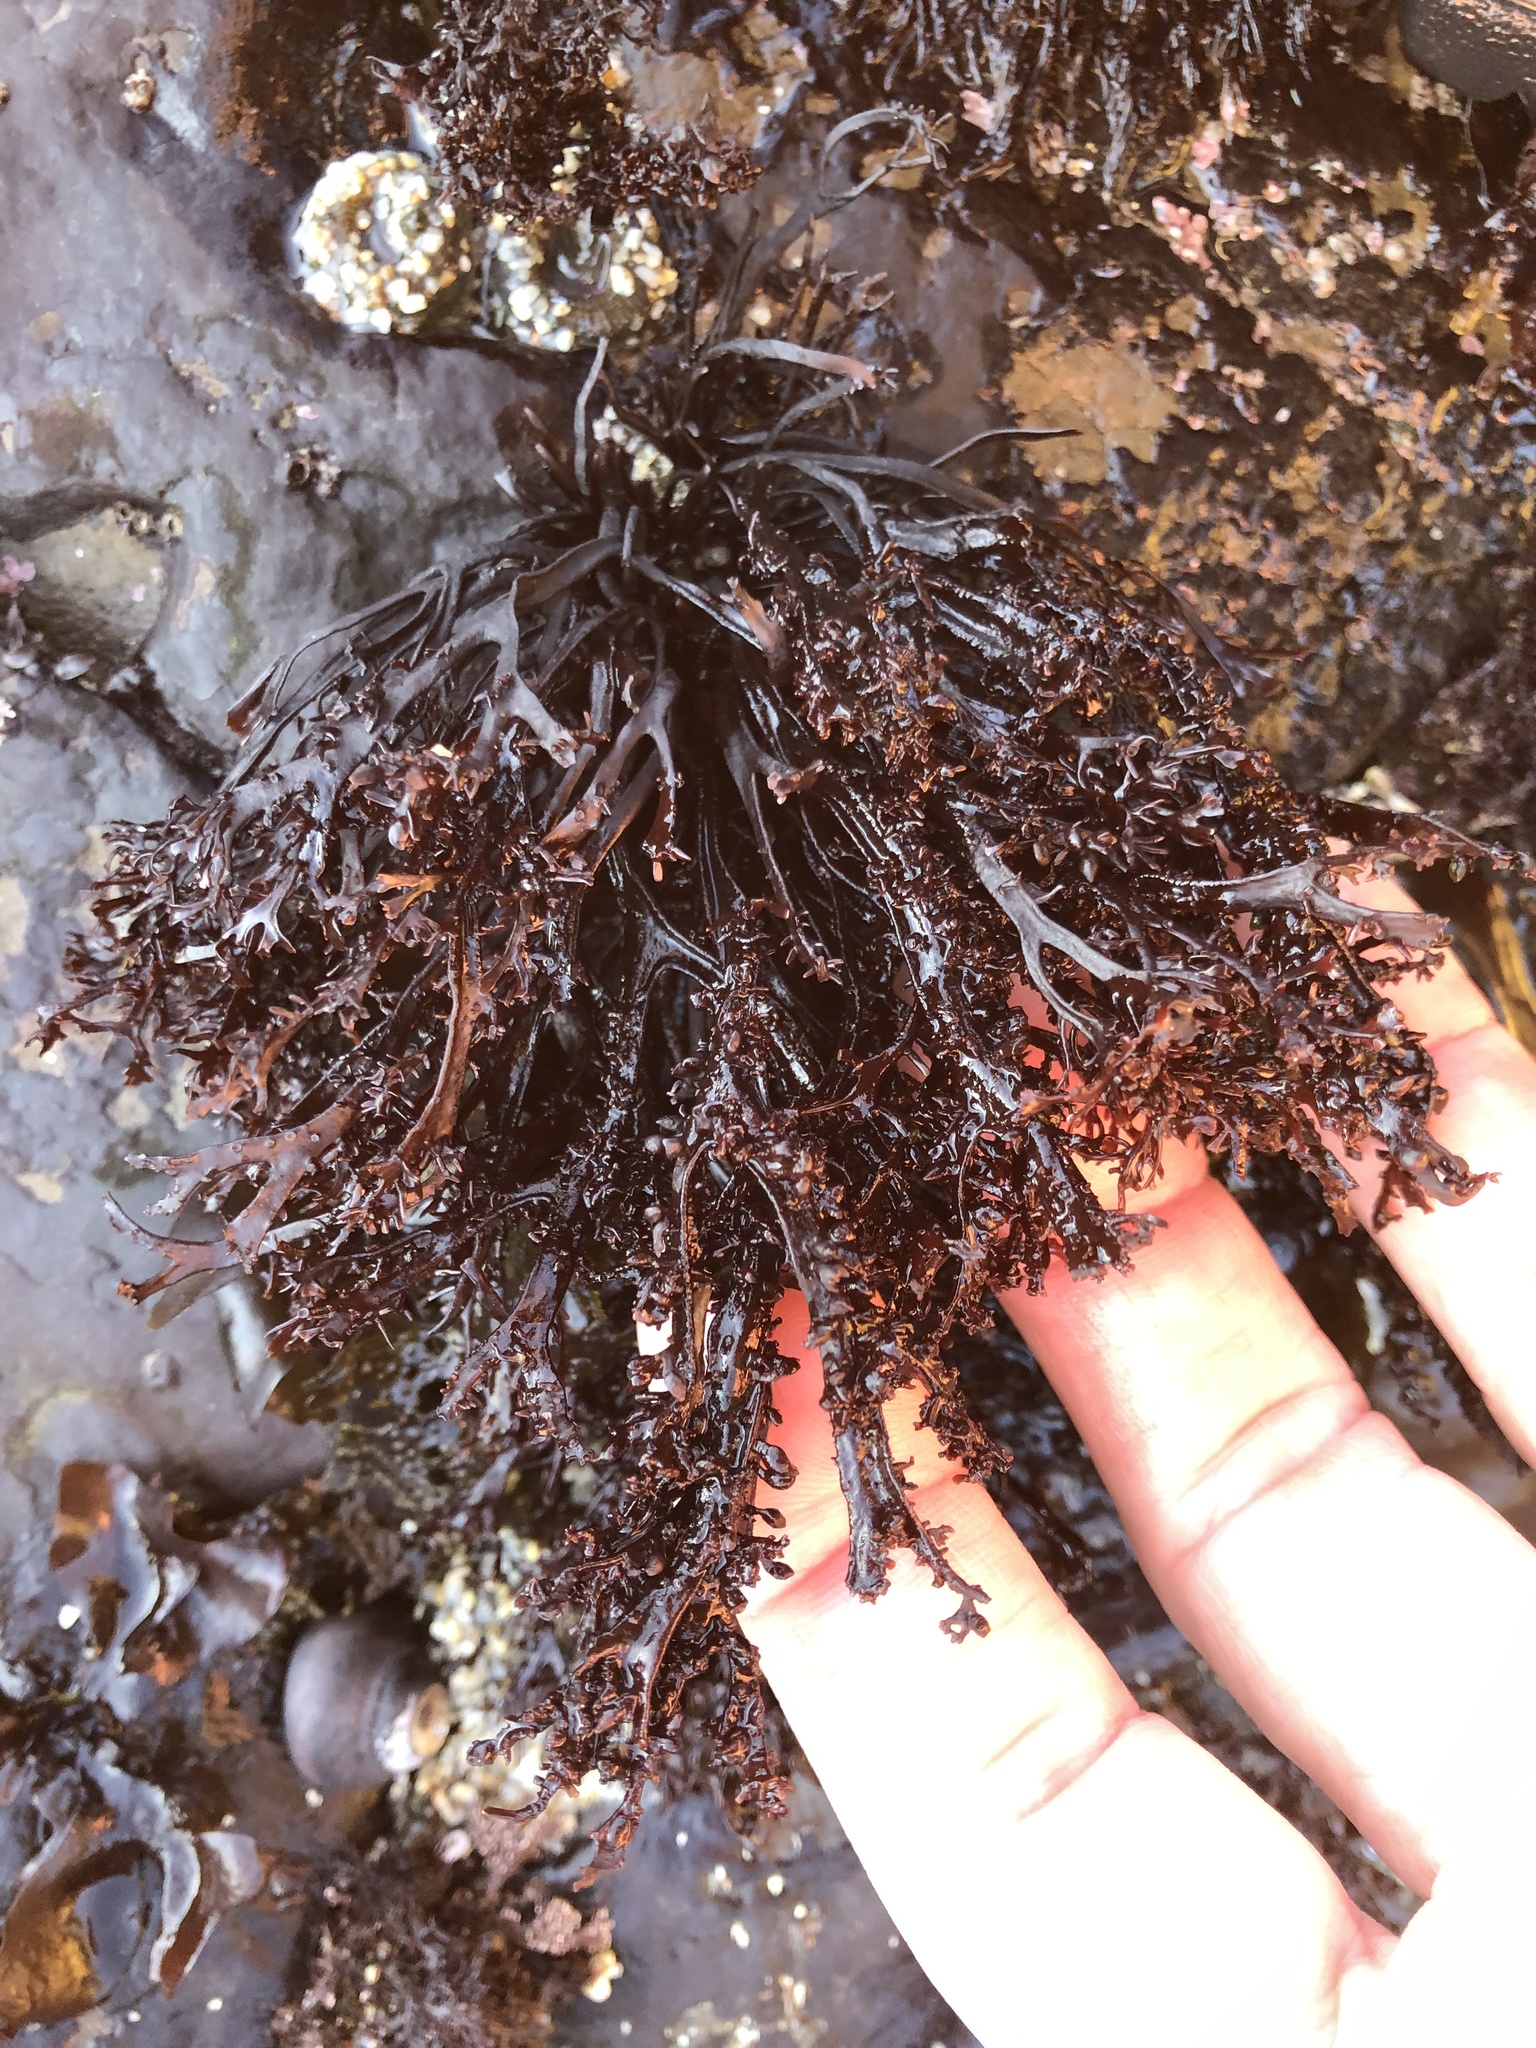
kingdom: Plantae
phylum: Rhodophyta
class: Florideophyceae
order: Gigartinales
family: Phyllophoraceae
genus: Mastocarpus
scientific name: Mastocarpus jardinii
